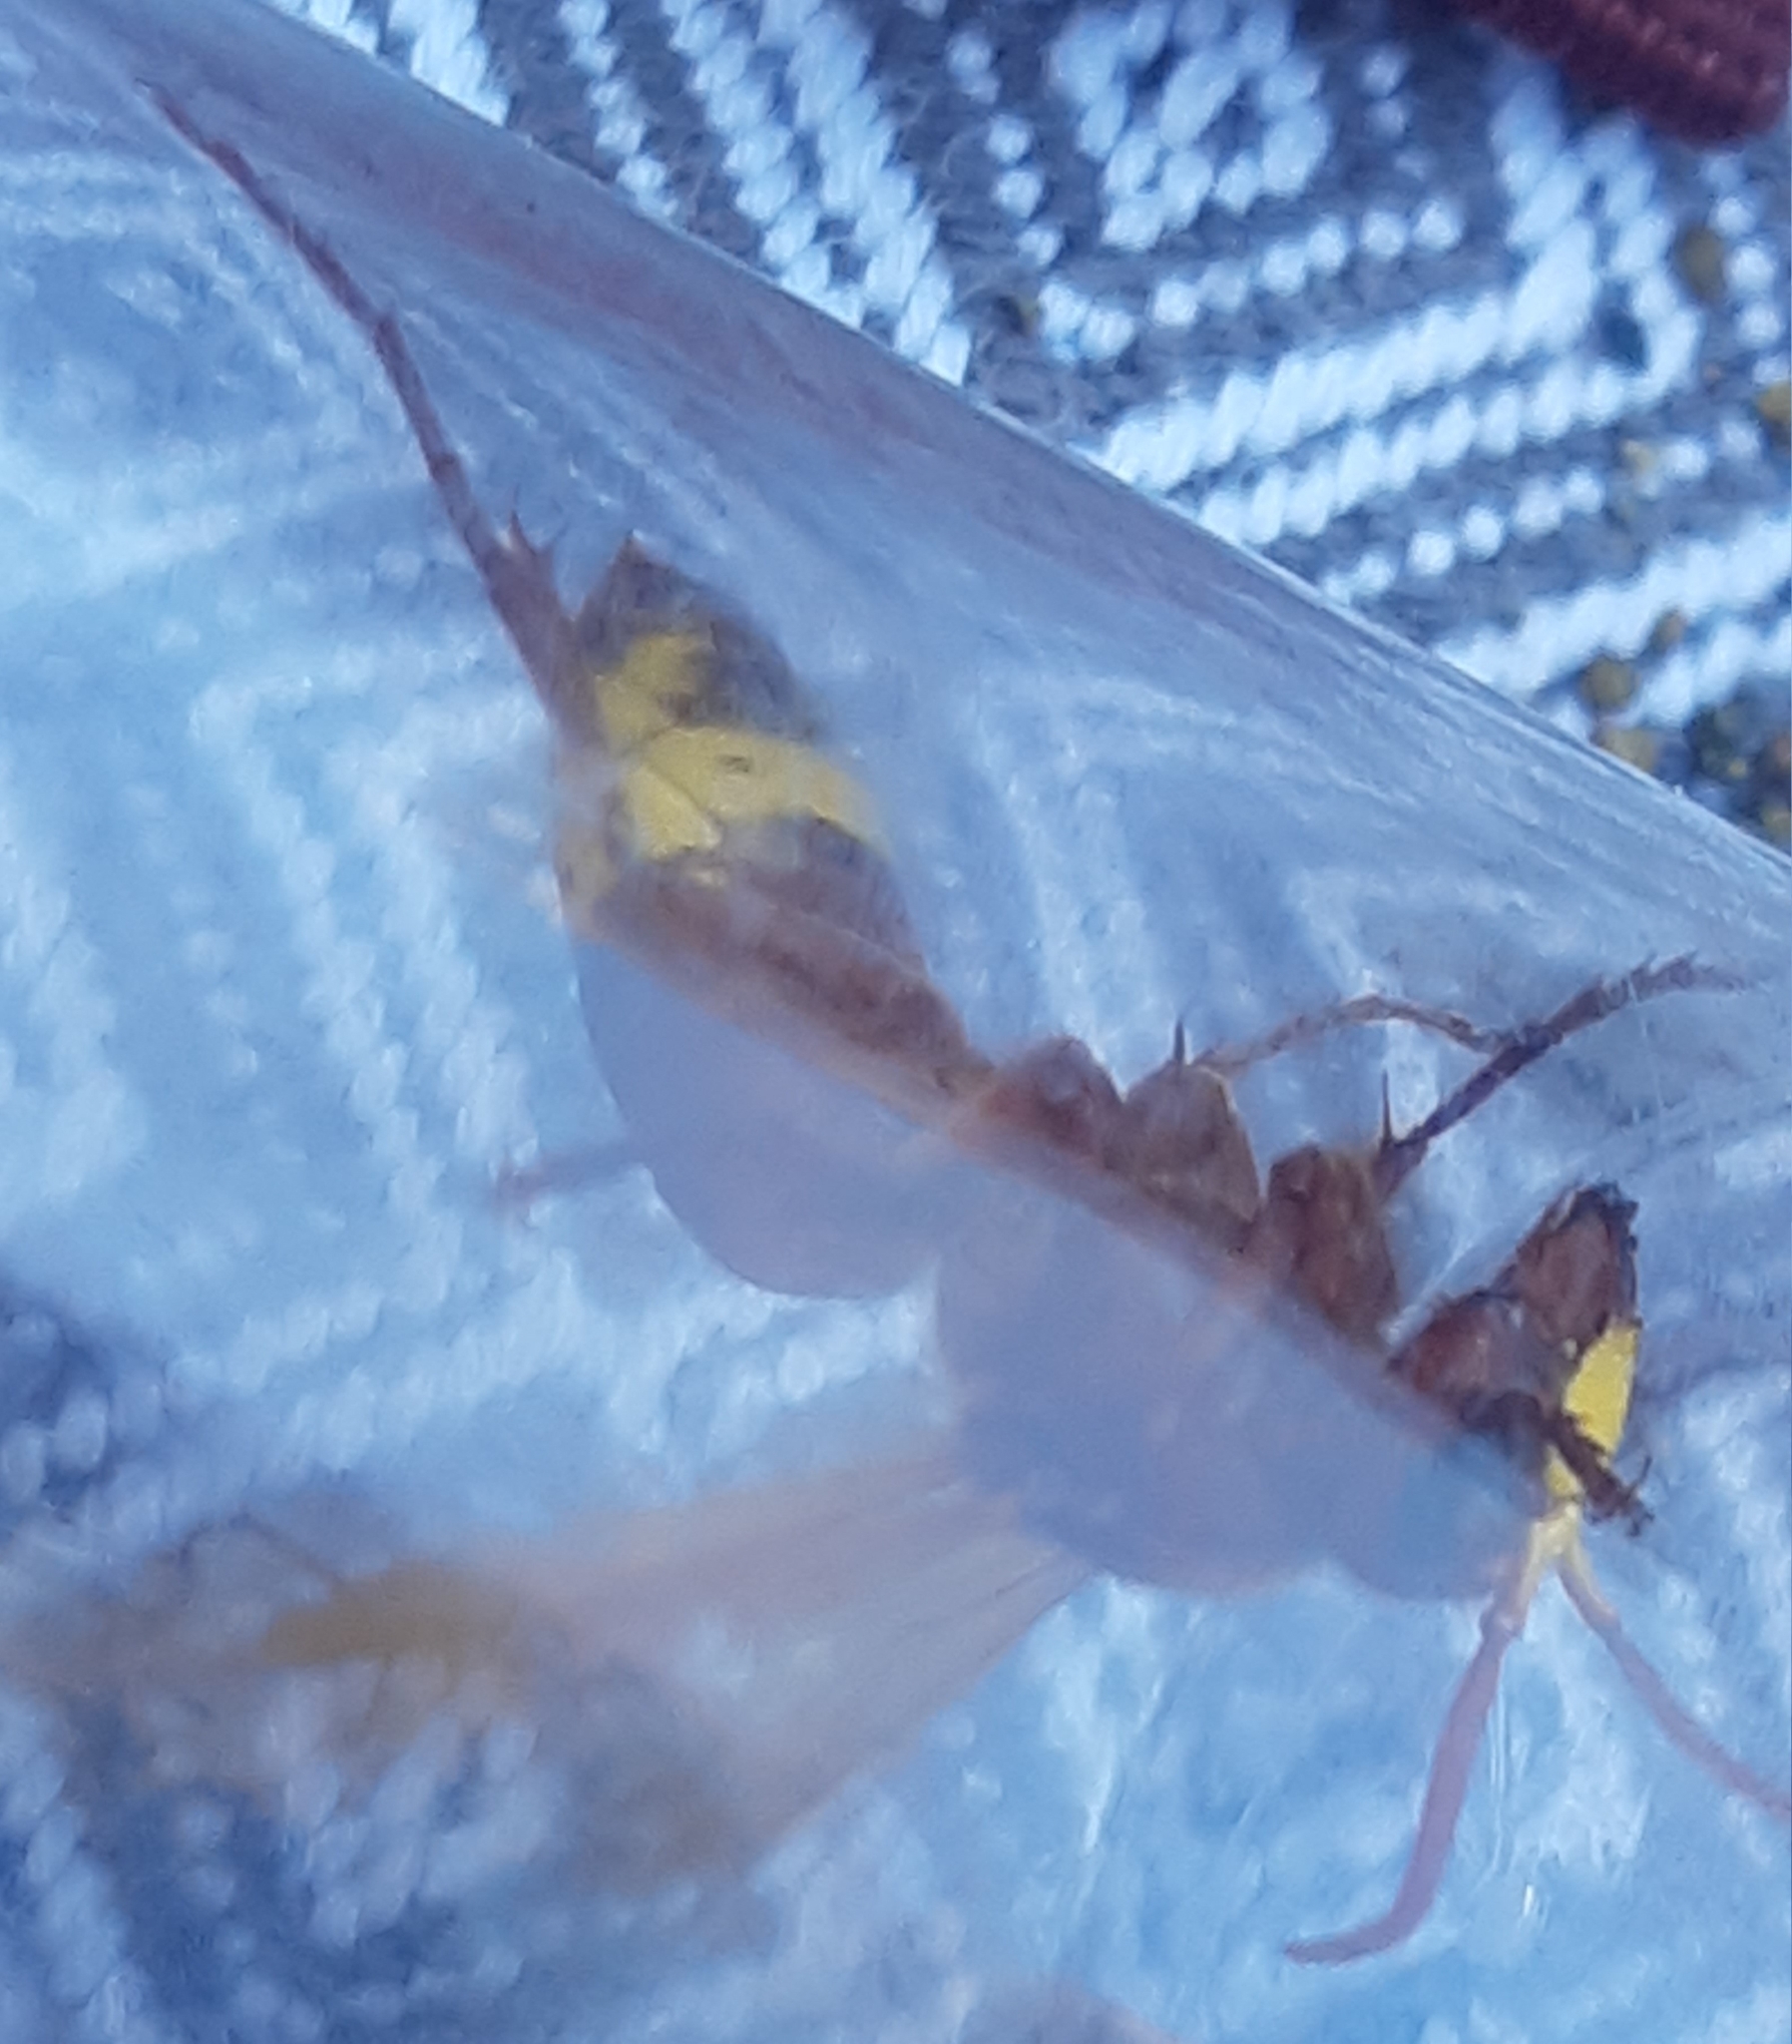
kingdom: Animalia
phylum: Arthropoda
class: Insecta
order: Hymenoptera
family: Vespidae
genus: Vespa
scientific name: Vespa orientalis
